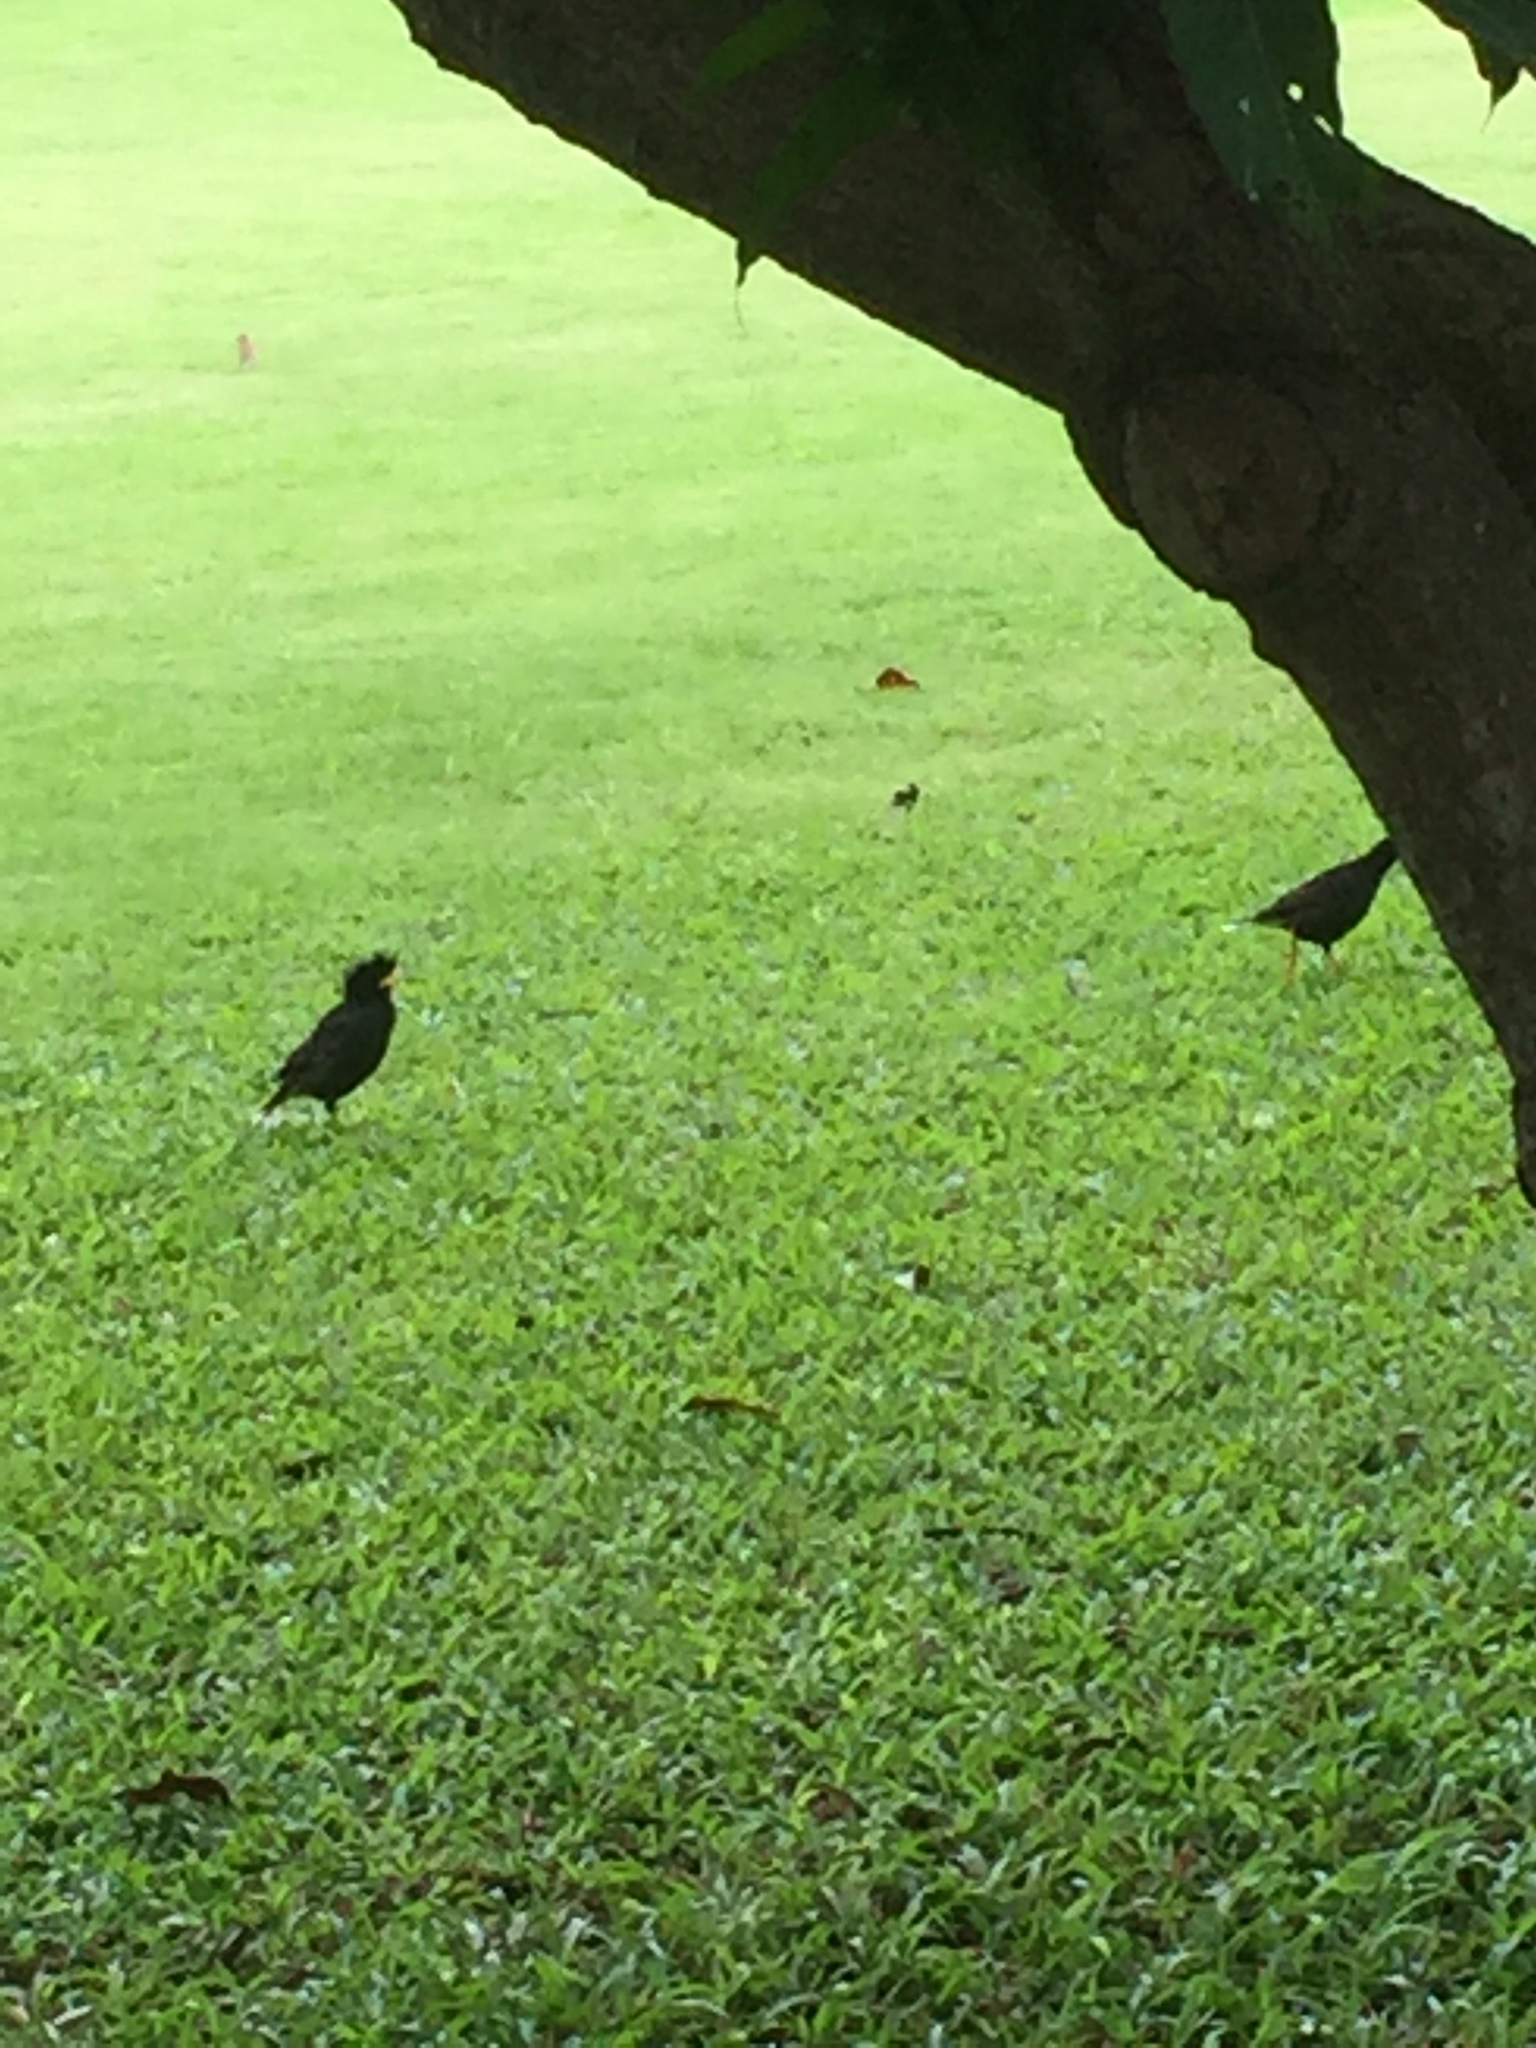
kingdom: Animalia
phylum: Chordata
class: Aves
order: Passeriformes
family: Sturnidae
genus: Acridotheres
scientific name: Acridotheres grandis
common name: Great myna
